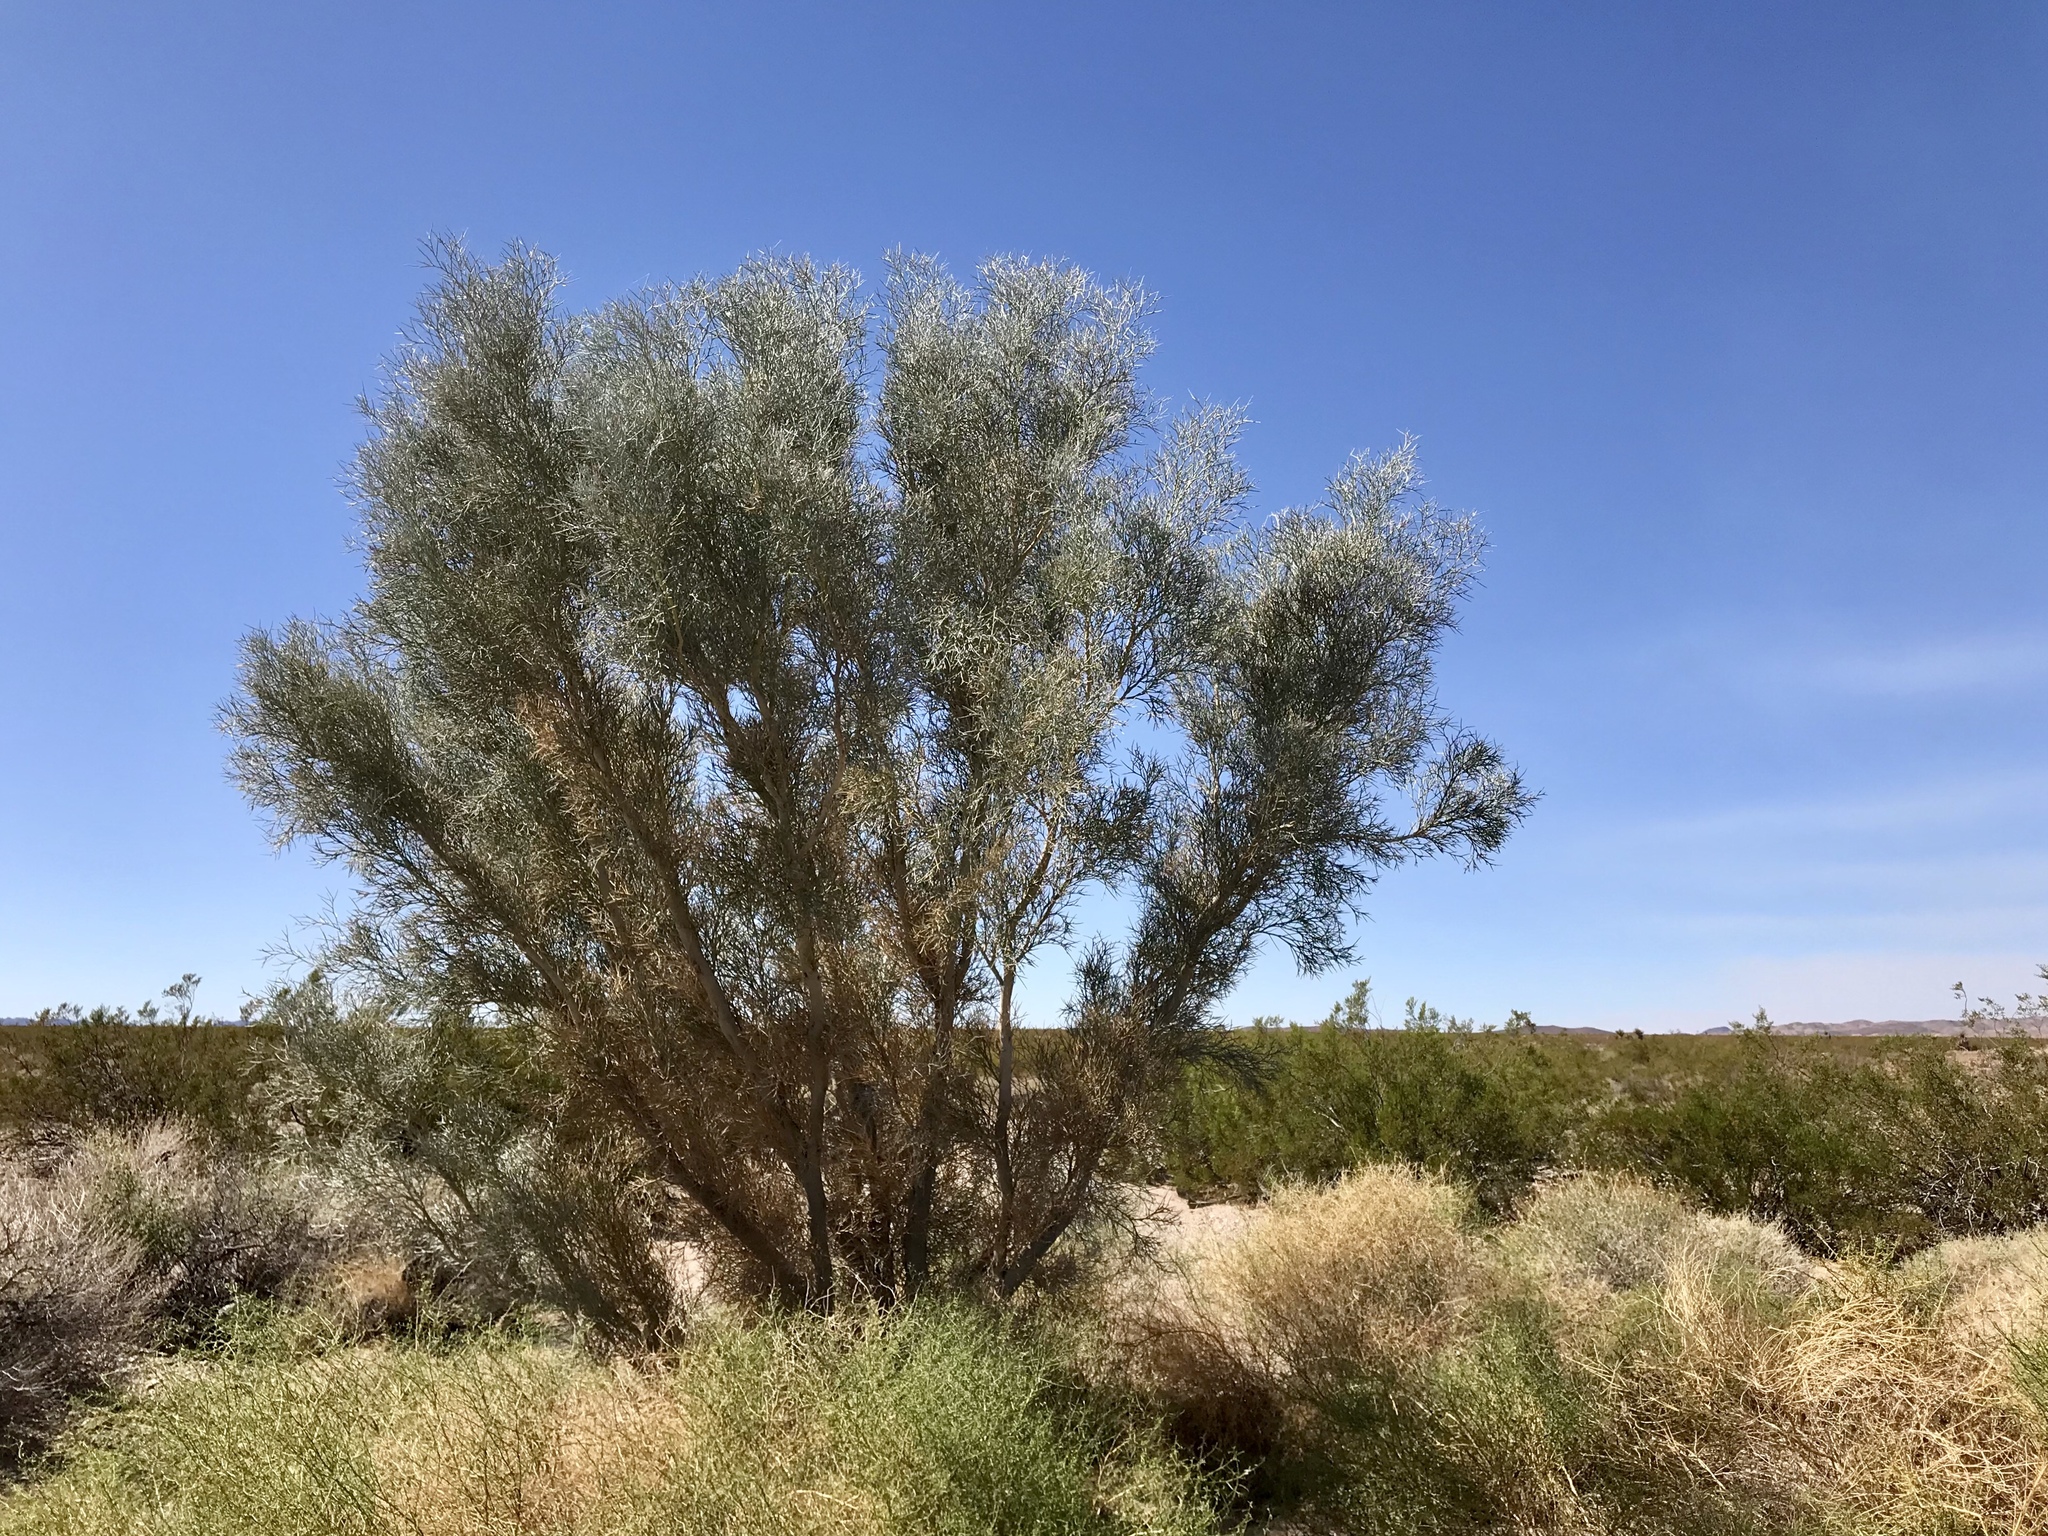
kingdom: Plantae
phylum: Tracheophyta
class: Magnoliopsida
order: Fabales
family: Fabaceae
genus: Psorothamnus
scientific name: Psorothamnus spinosus
